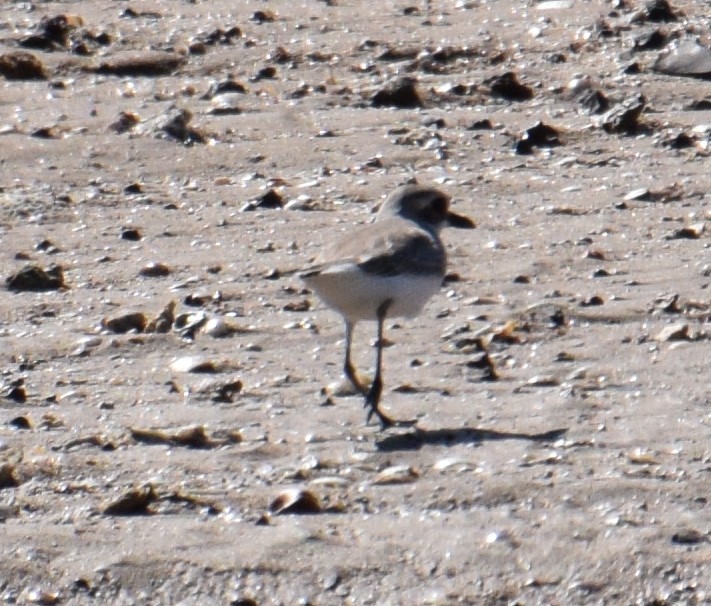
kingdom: Animalia
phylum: Chordata
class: Aves
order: Charadriiformes
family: Charadriidae
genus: Charadrius
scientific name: Charadrius leschenaultii
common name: Greater sand plover
